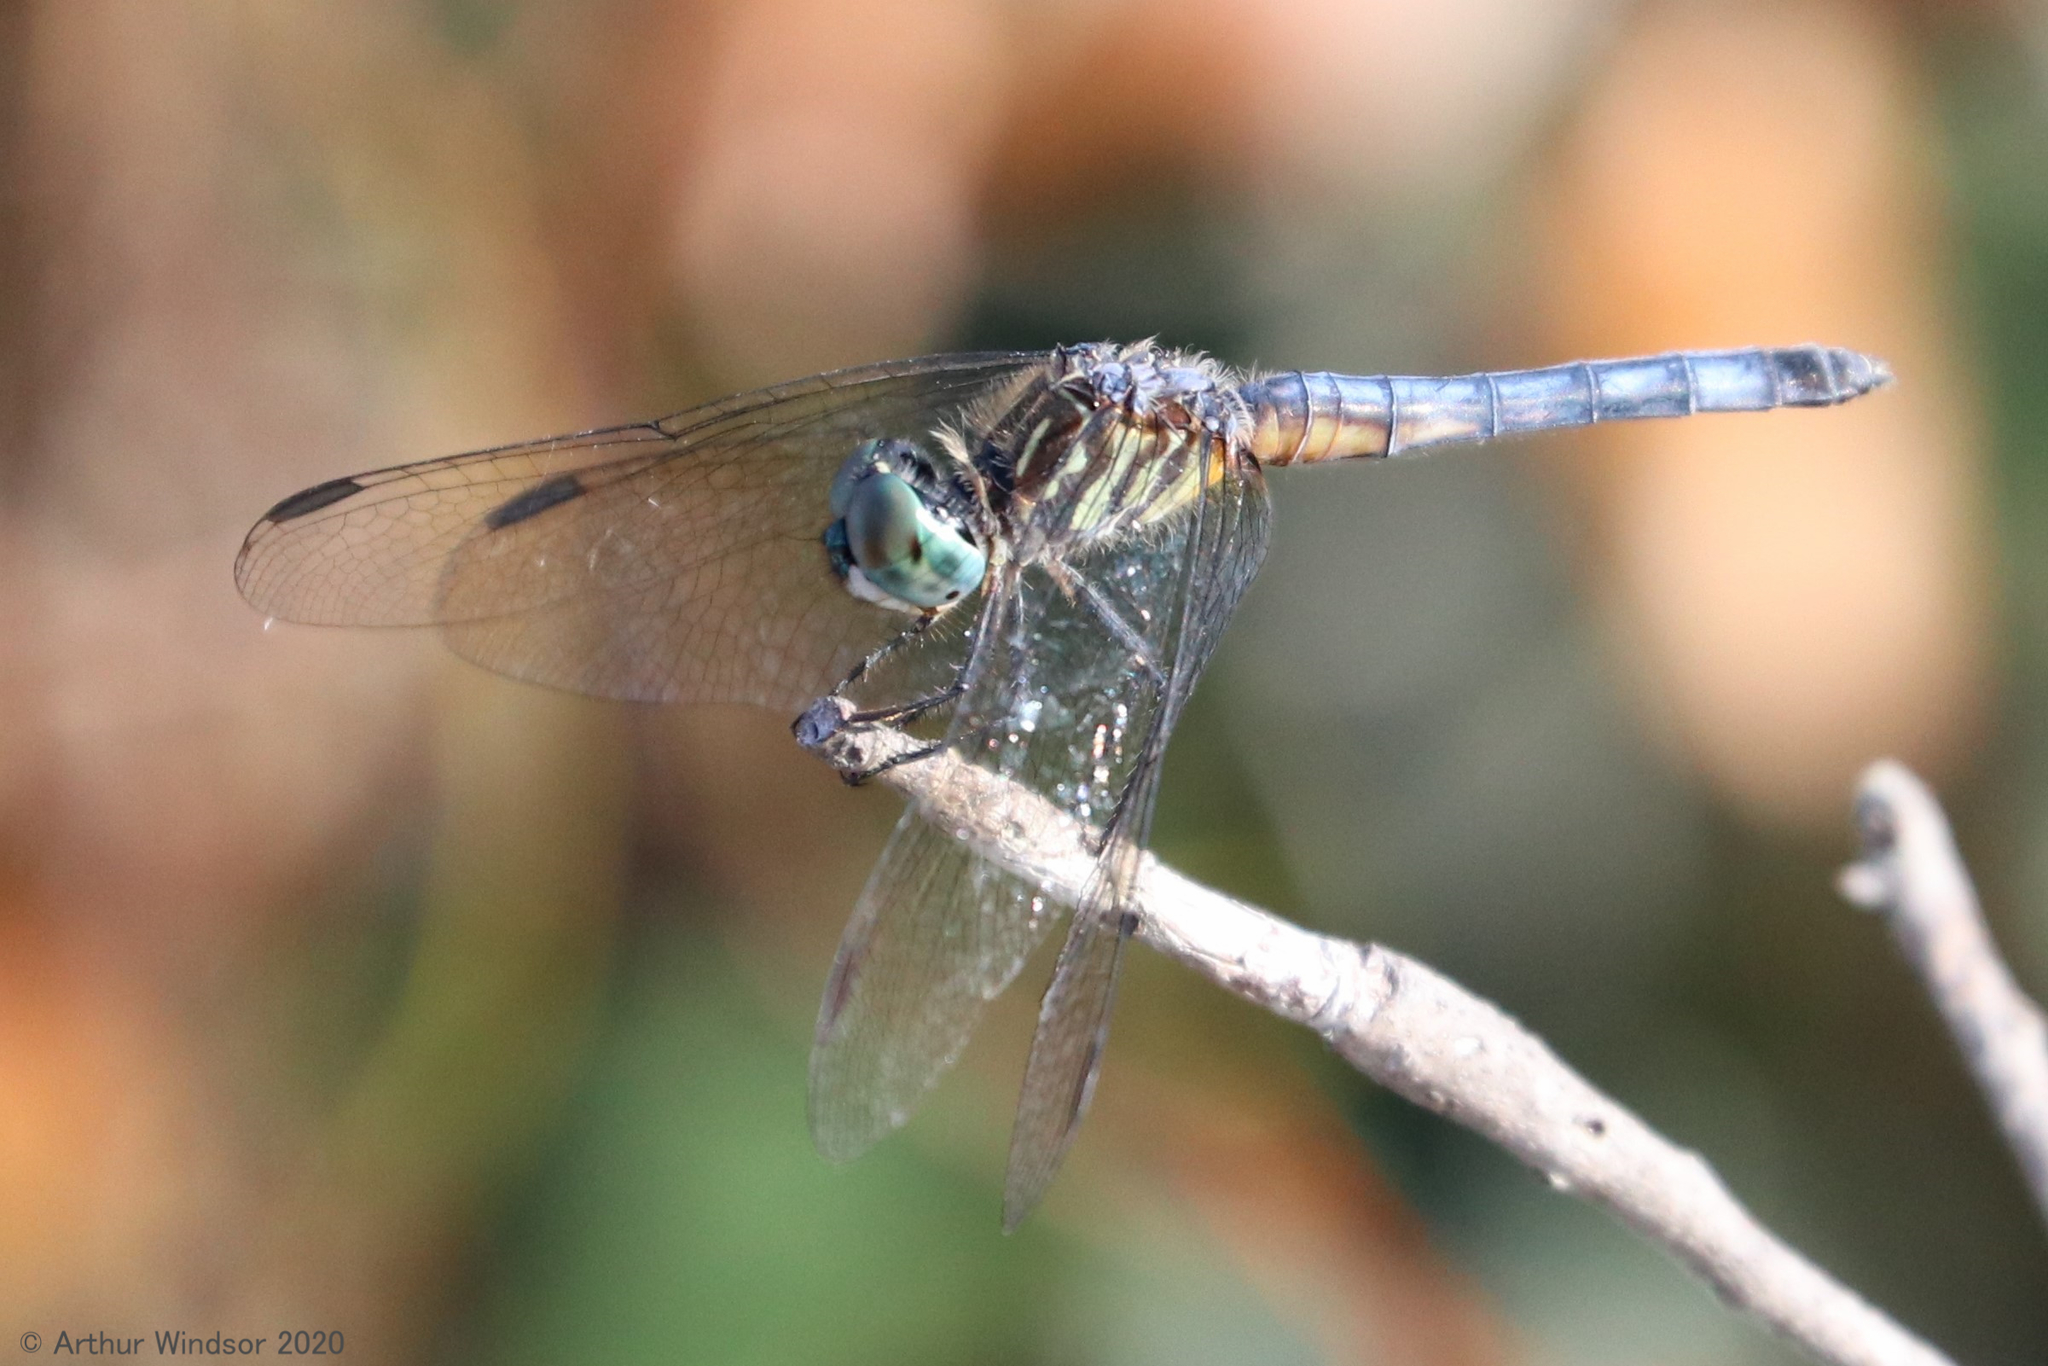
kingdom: Animalia
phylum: Arthropoda
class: Insecta
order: Odonata
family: Libellulidae
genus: Pachydiplax
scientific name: Pachydiplax longipennis
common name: Blue dasher
